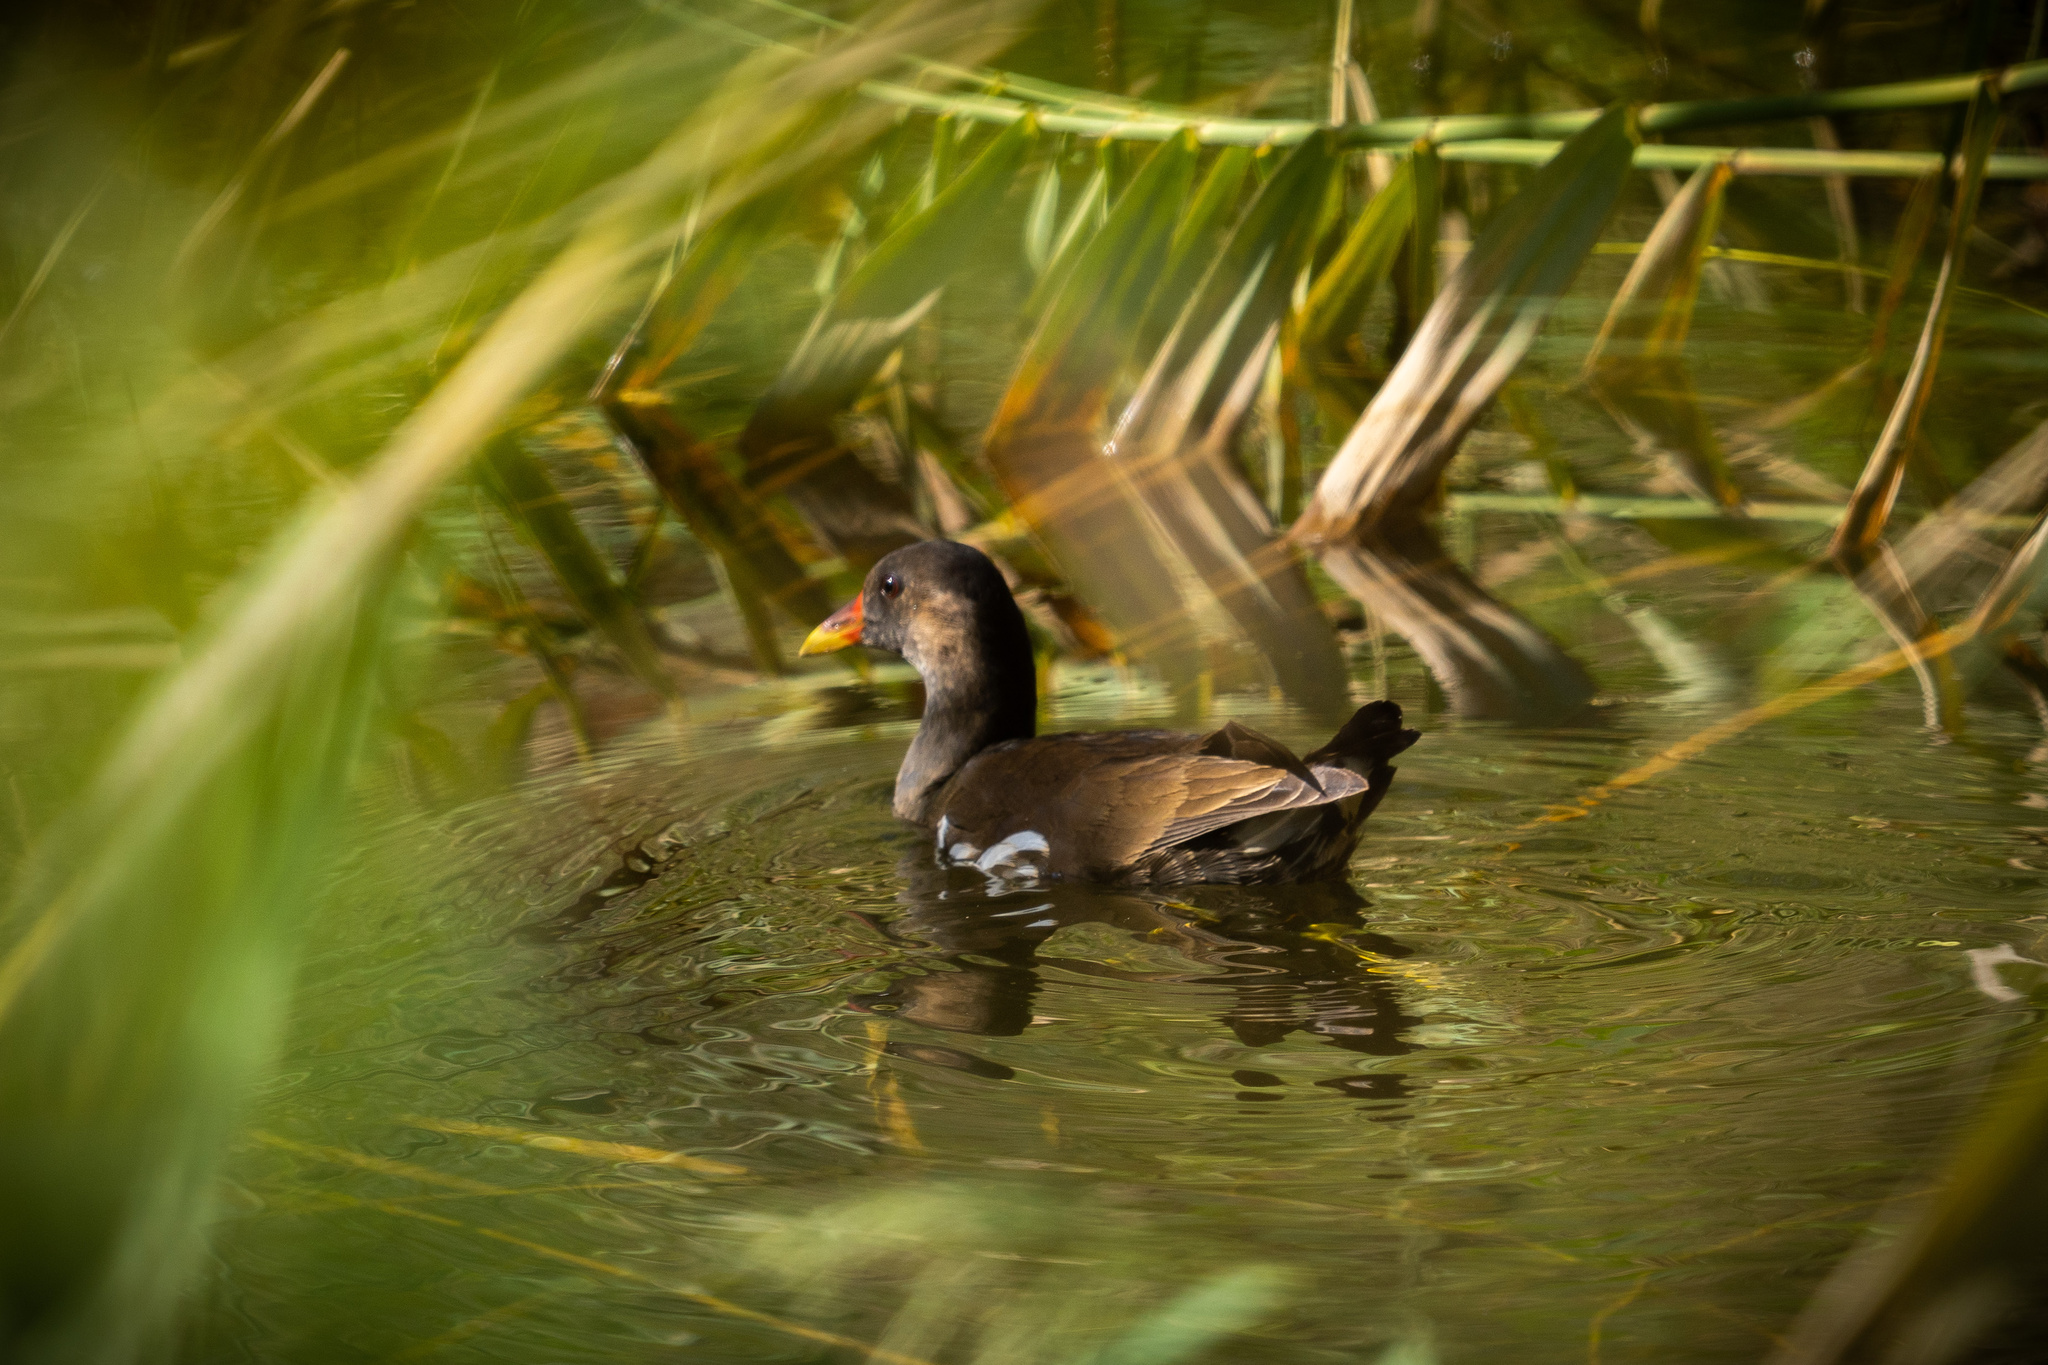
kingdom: Animalia
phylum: Chordata
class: Aves
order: Gruiformes
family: Rallidae
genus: Gallinula
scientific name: Gallinula chloropus
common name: Common moorhen
